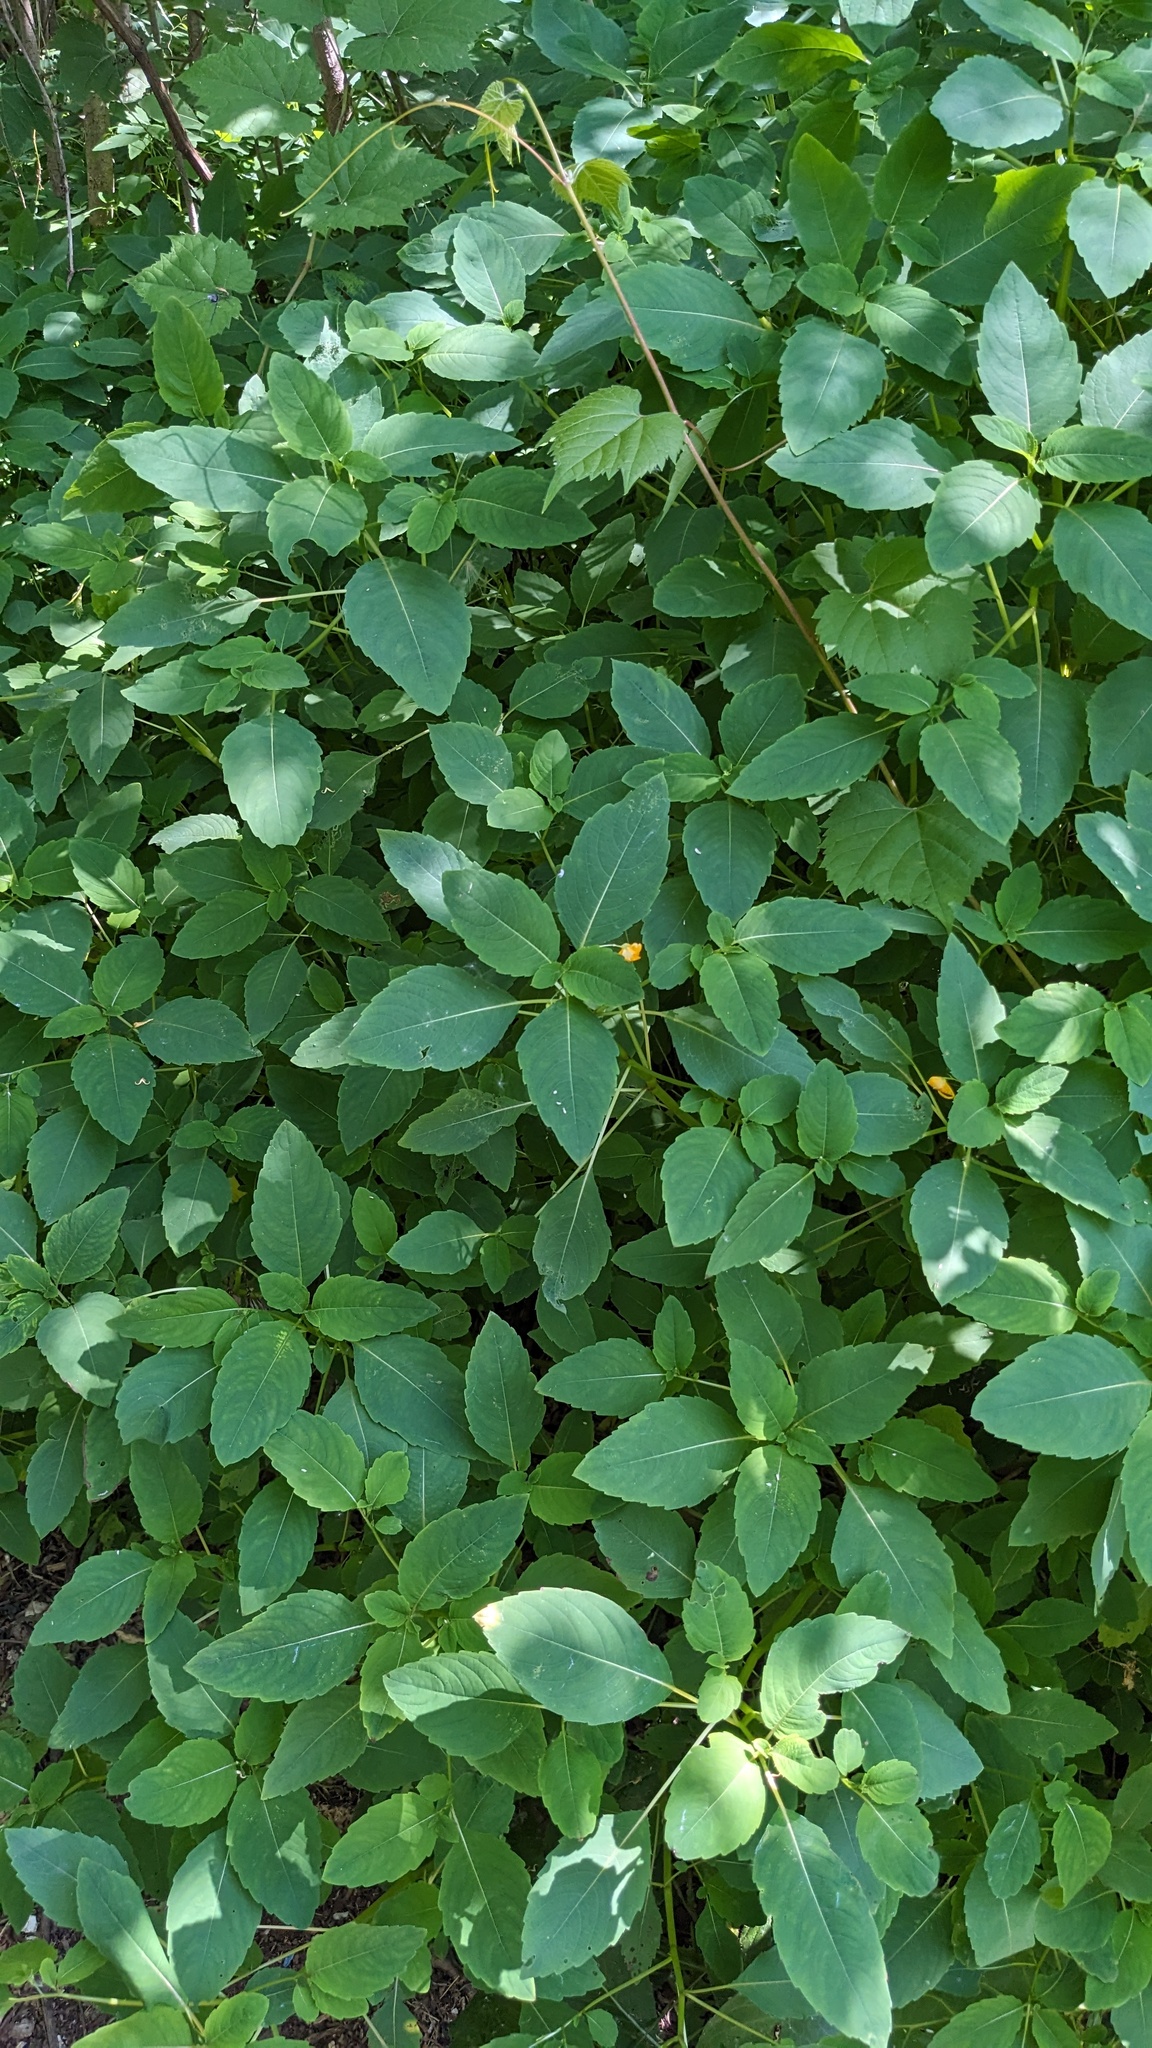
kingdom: Plantae
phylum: Tracheophyta
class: Magnoliopsida
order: Ericales
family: Balsaminaceae
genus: Impatiens
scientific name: Impatiens capensis
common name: Orange balsam
